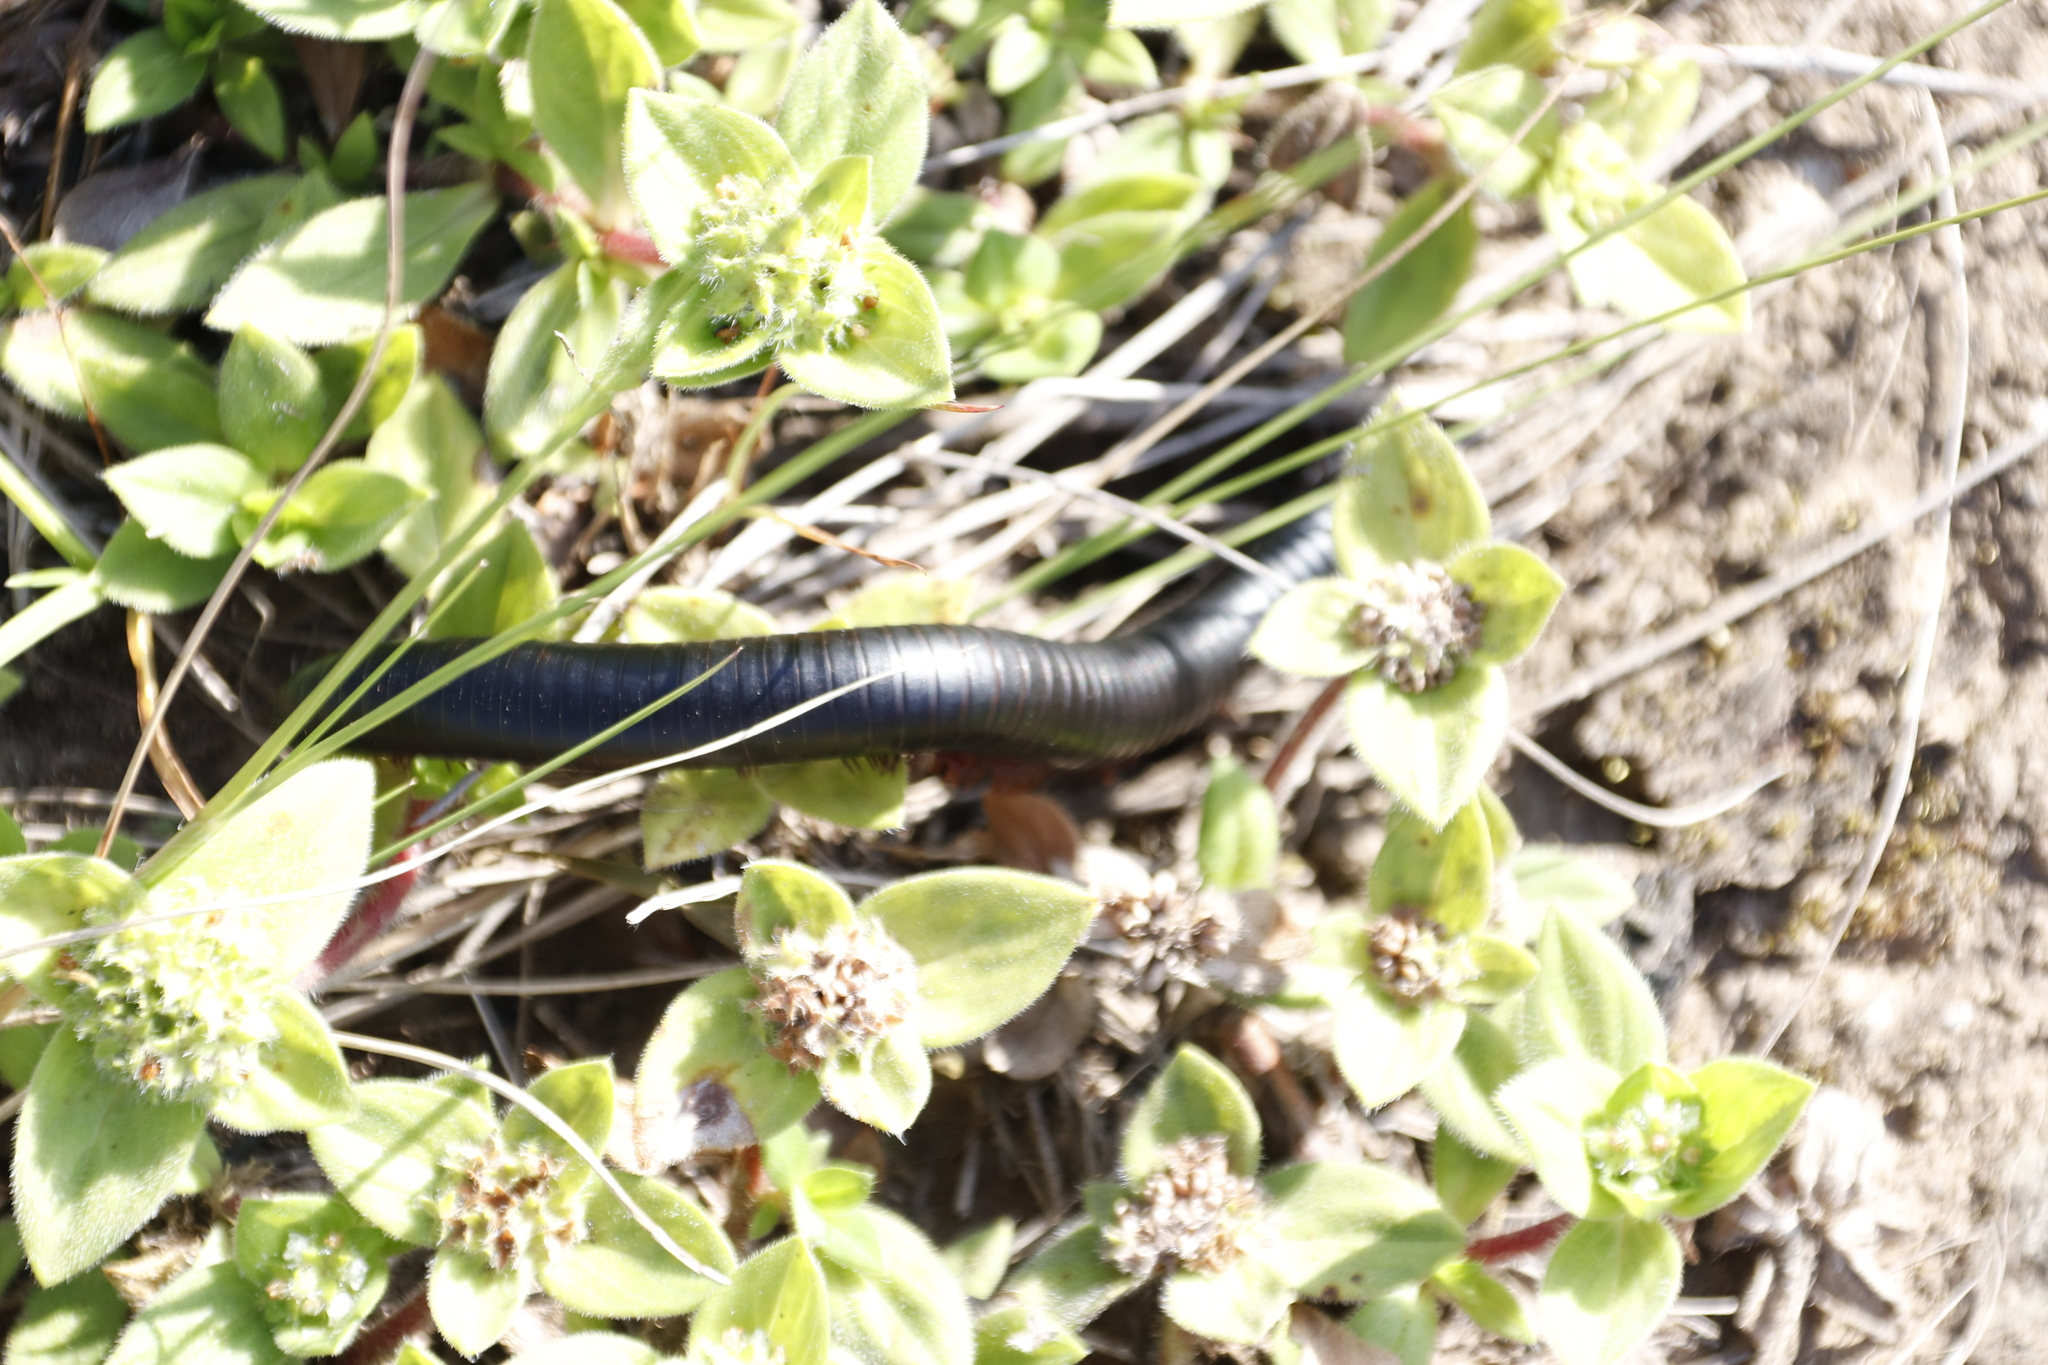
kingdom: Plantae
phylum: Tracheophyta
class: Magnoliopsida
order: Gentianales
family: Rubiaceae
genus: Richardia
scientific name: Richardia brasiliensis
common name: Tropical mexican clover
